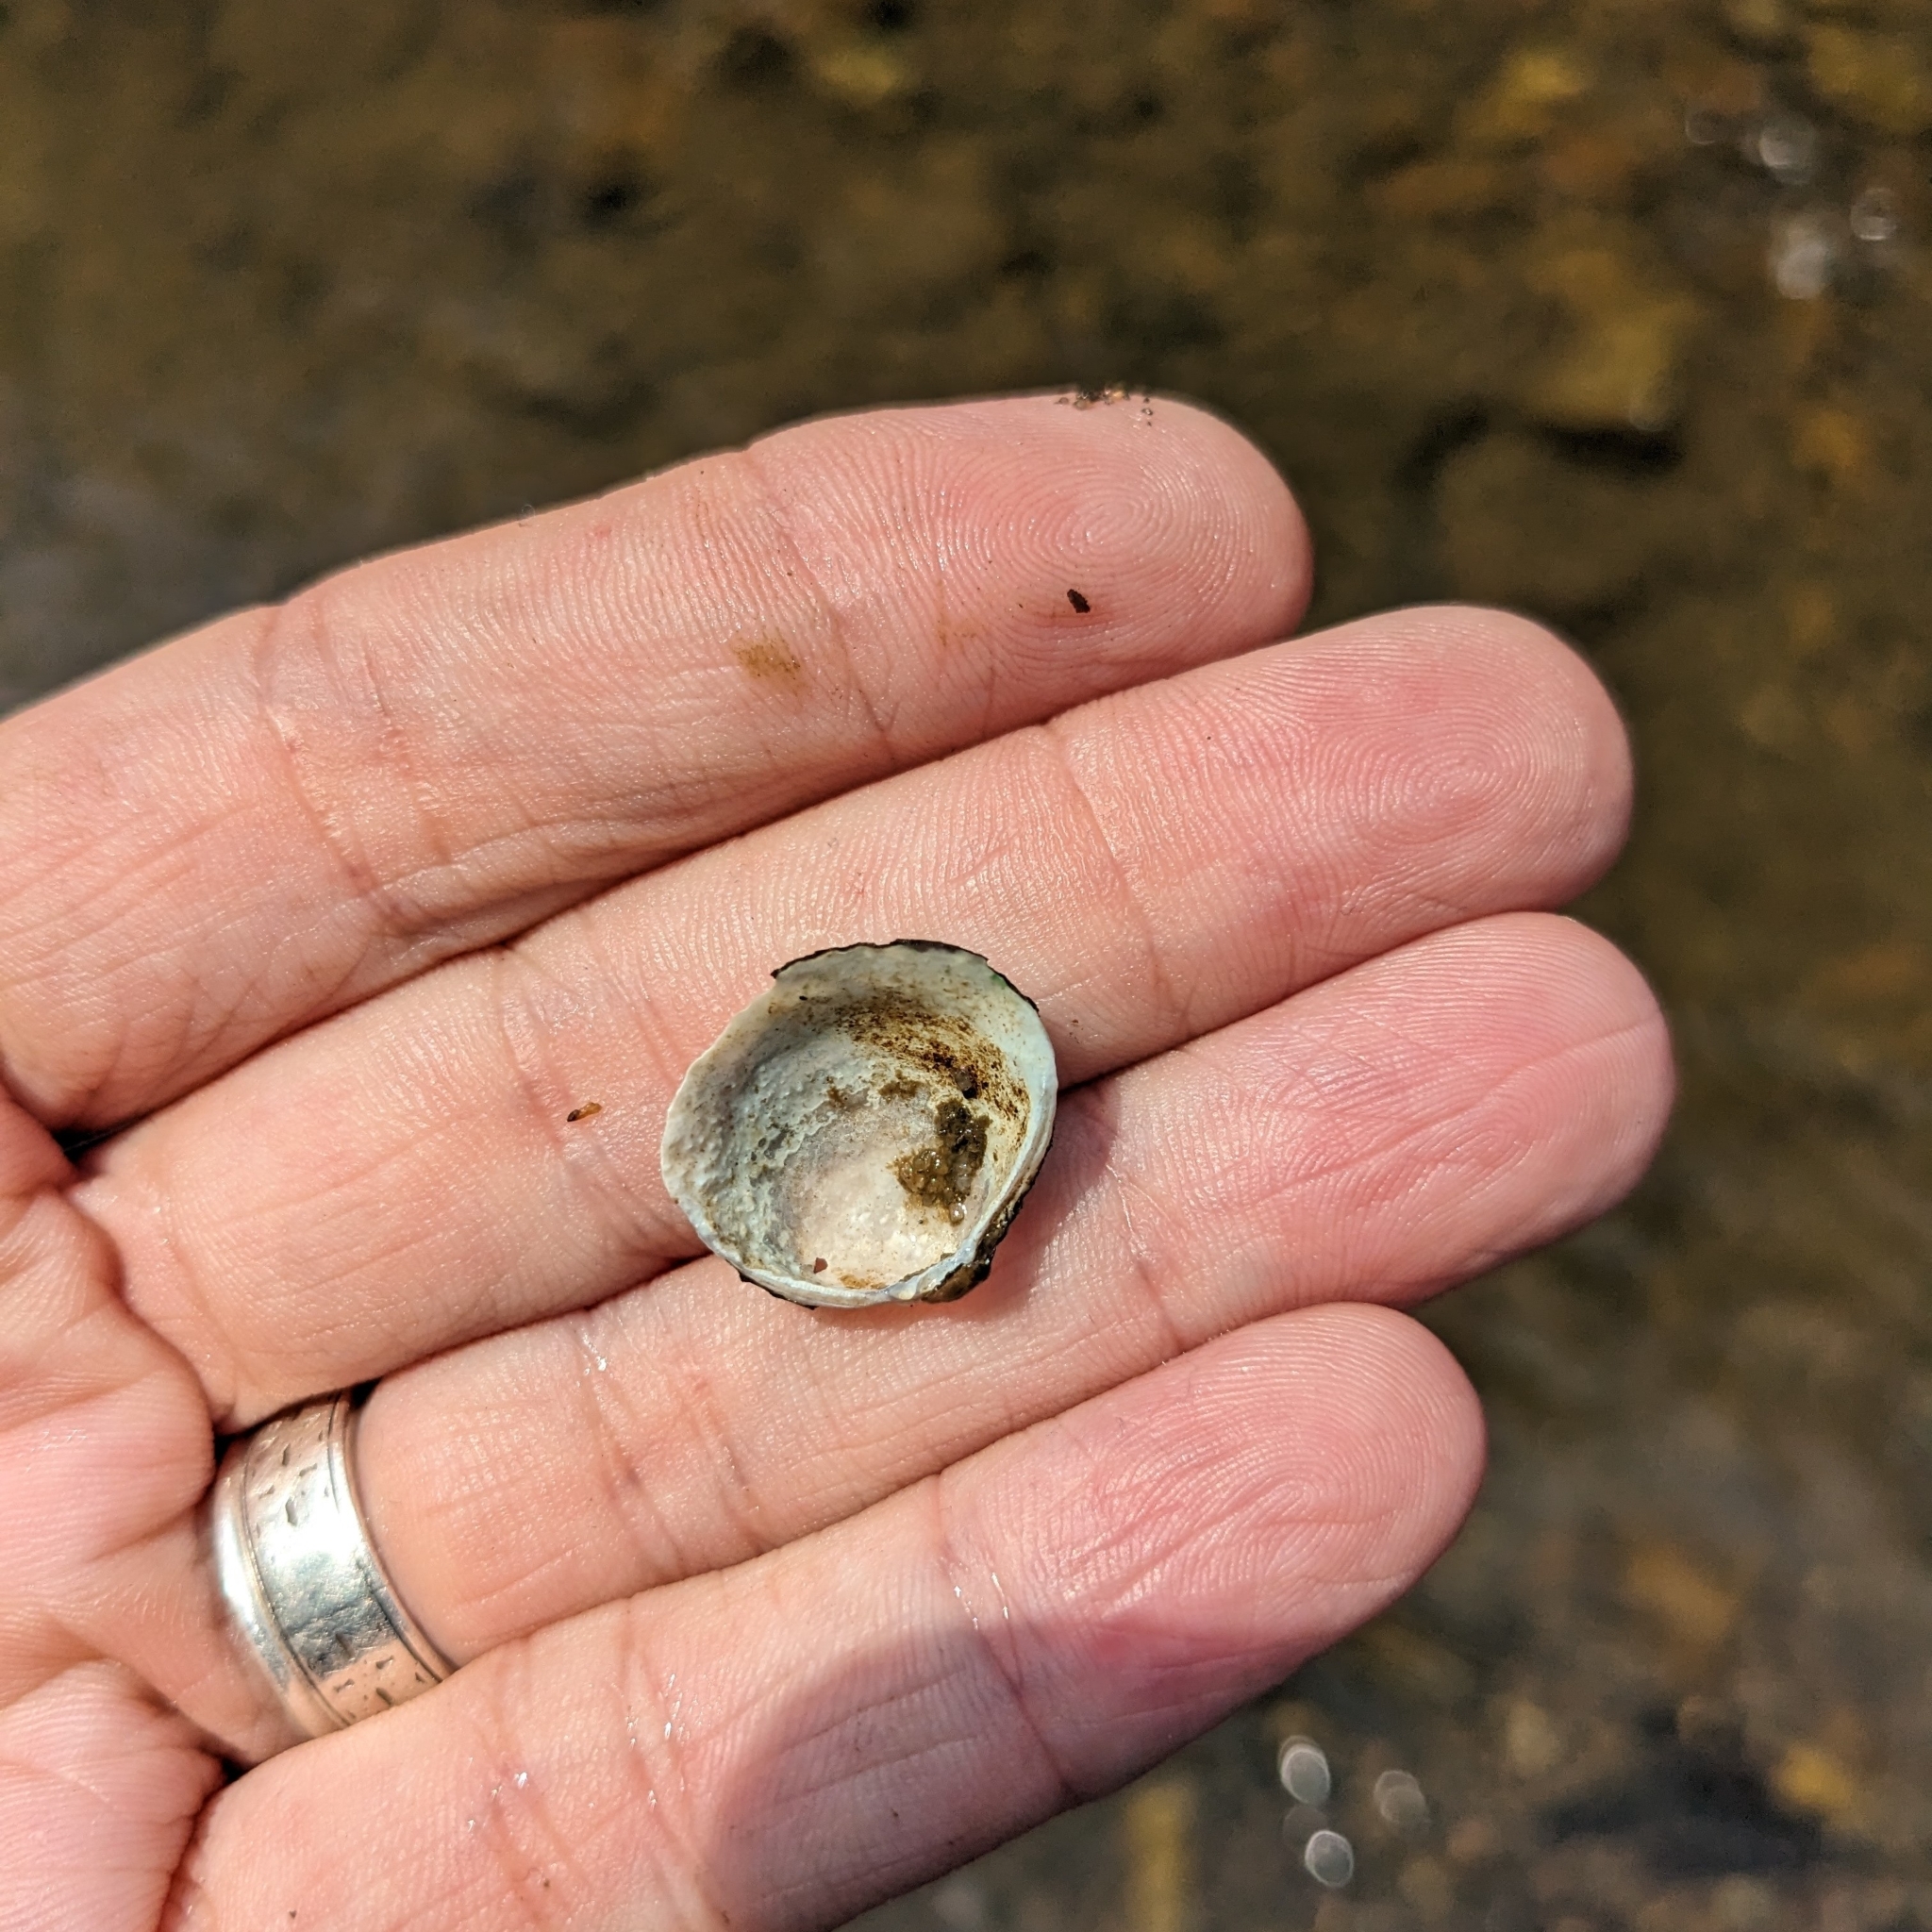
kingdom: Animalia
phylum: Mollusca
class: Bivalvia
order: Venerida
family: Cyrenidae
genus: Corbicula
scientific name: Corbicula fluminea
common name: Asian clam
